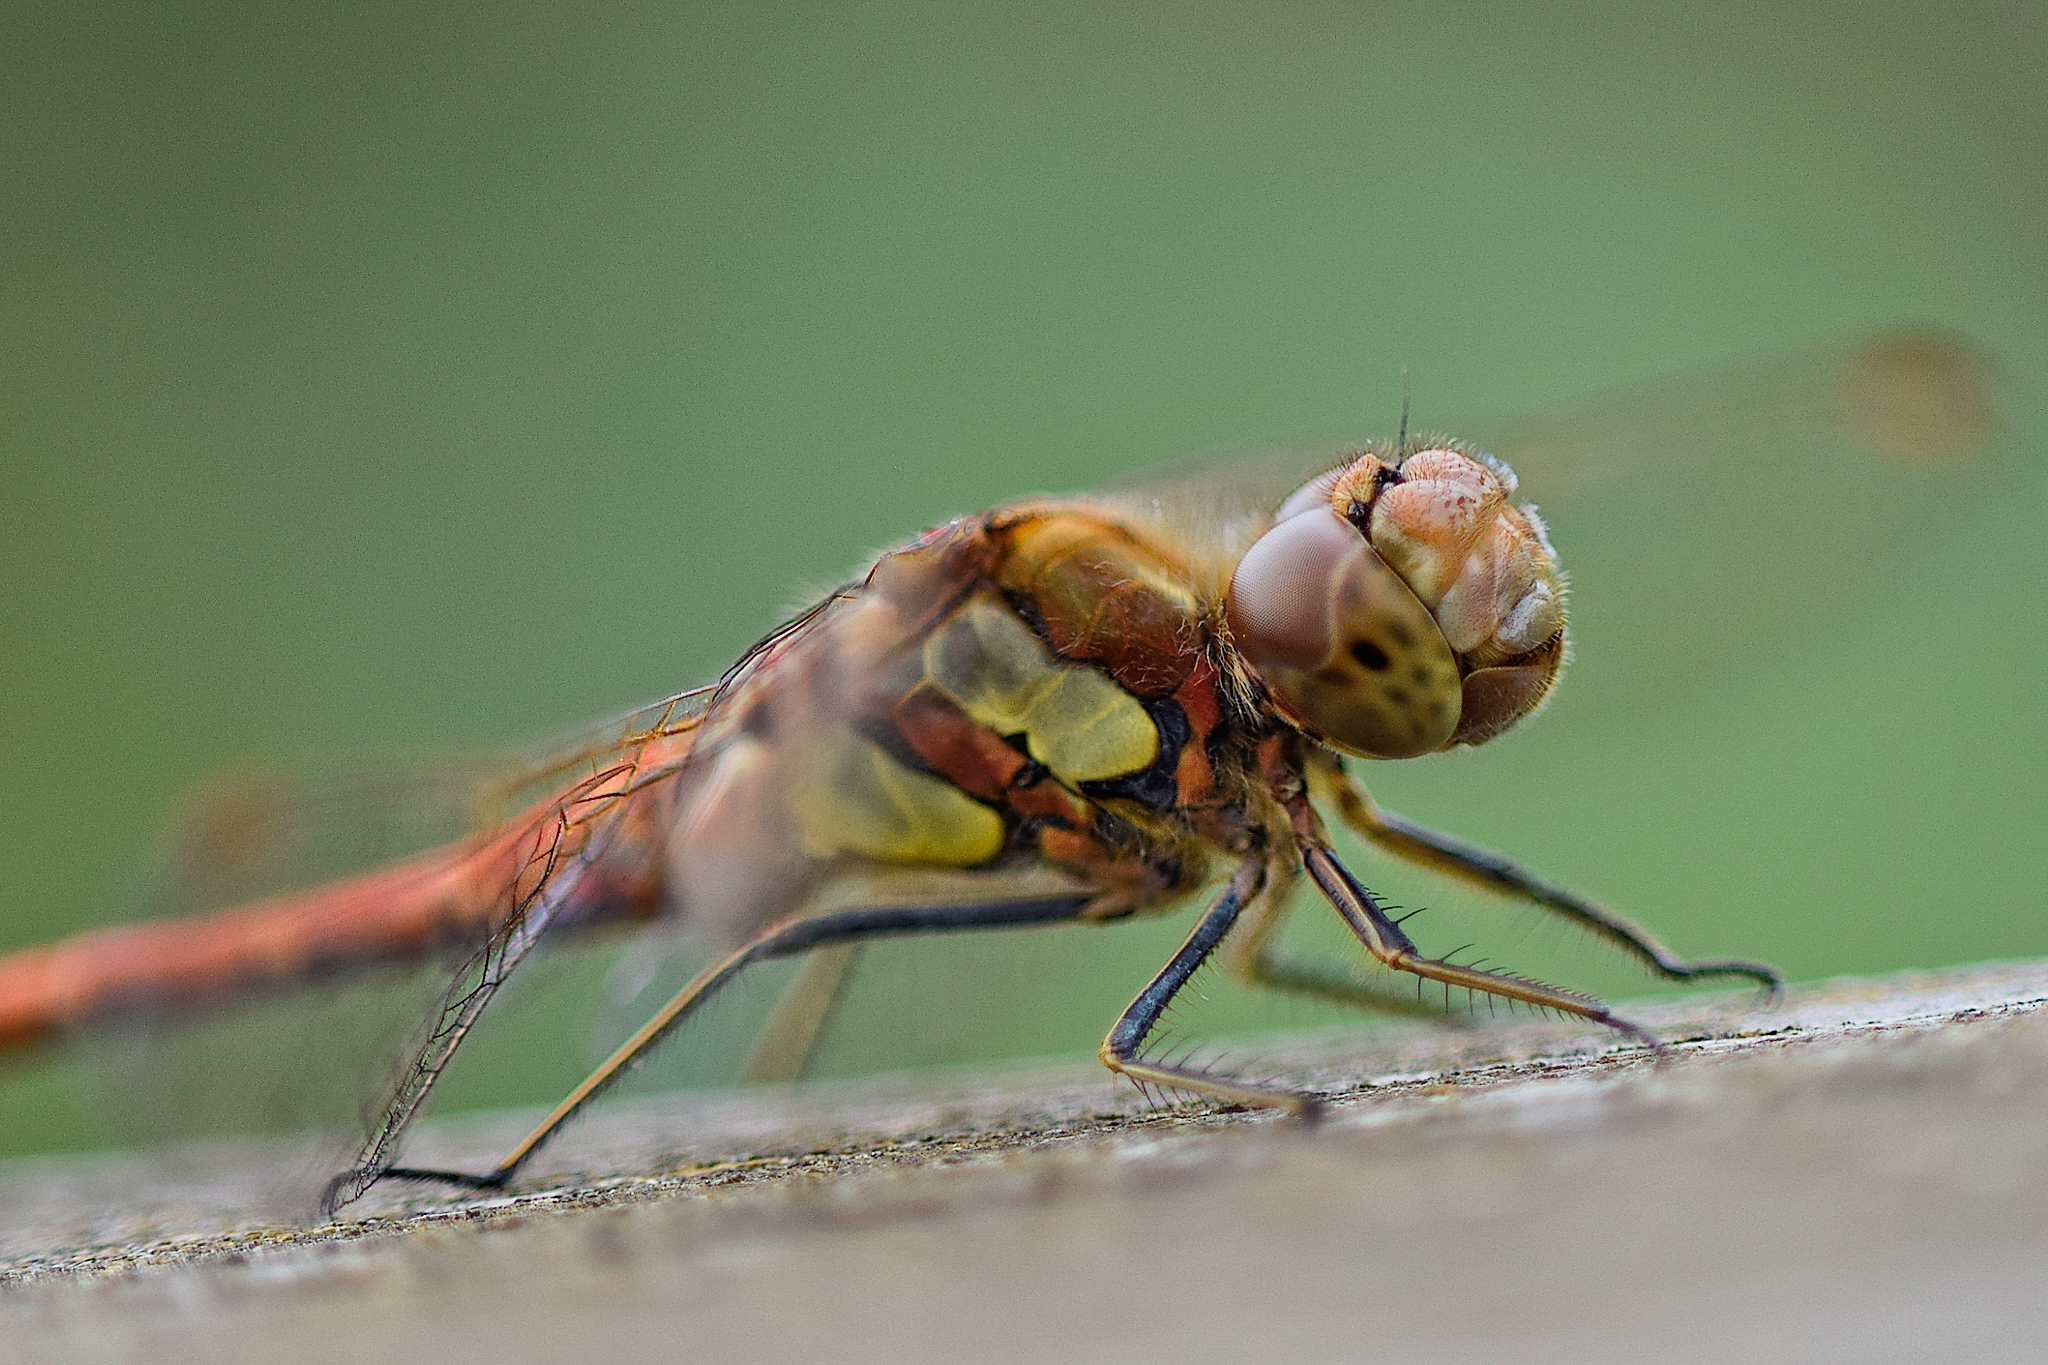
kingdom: Animalia
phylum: Arthropoda
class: Insecta
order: Odonata
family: Libellulidae
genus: Sympetrum
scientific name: Sympetrum striolatum
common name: Common darter
